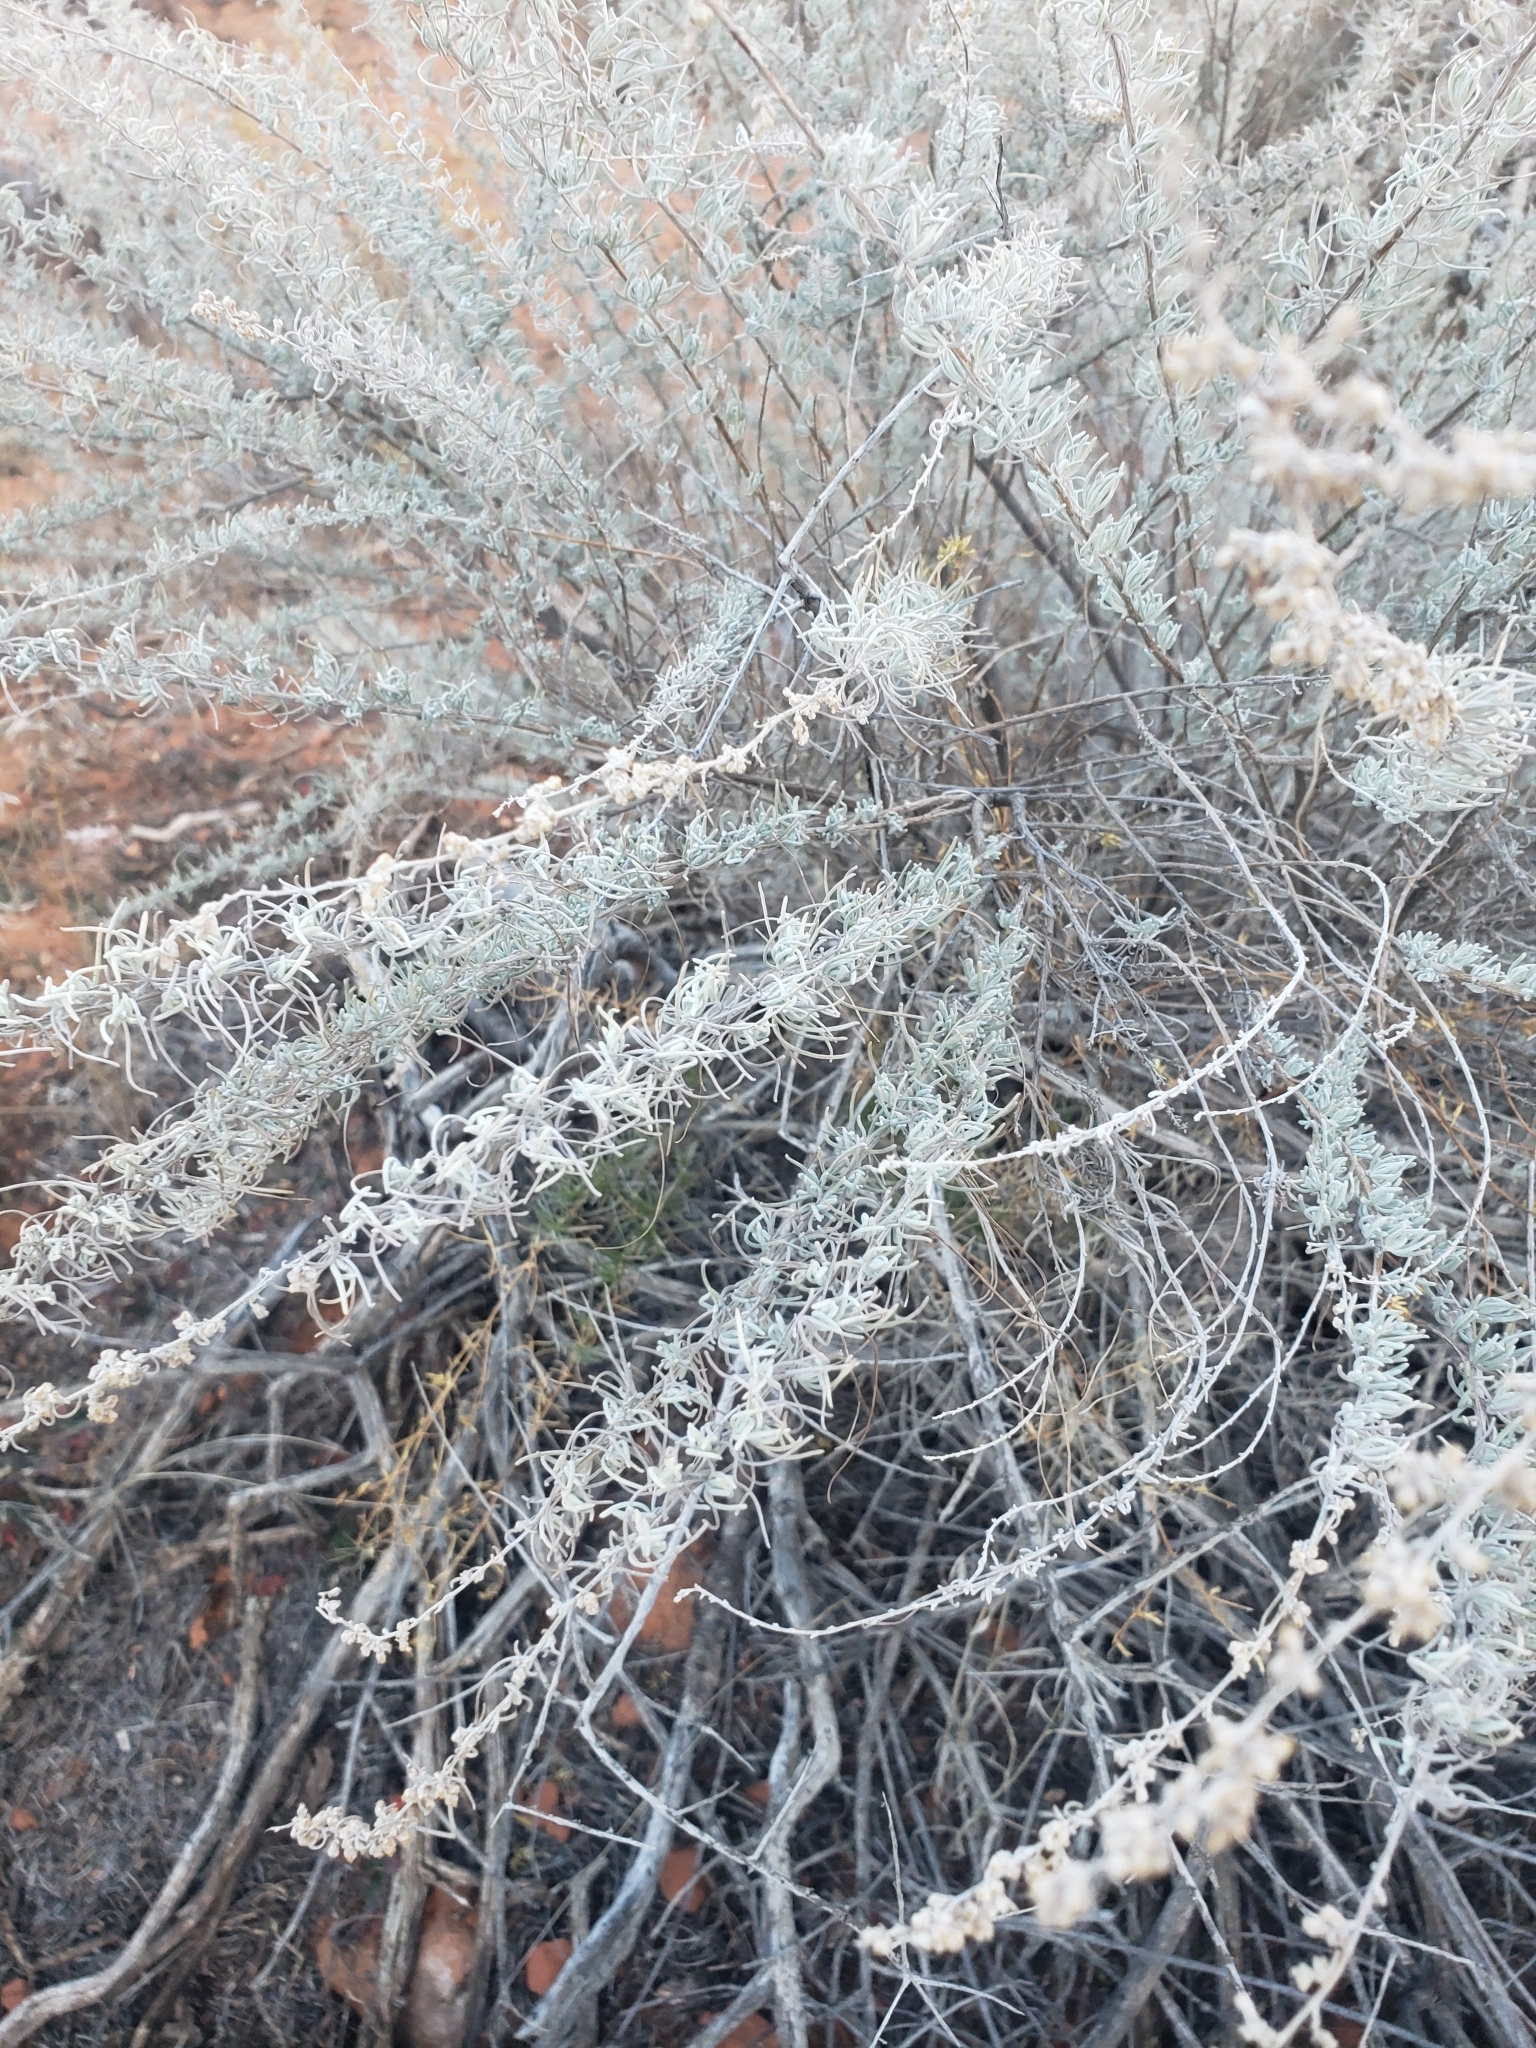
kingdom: Plantae
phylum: Tracheophyta
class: Magnoliopsida
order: Asterales
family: Asteraceae
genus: Artemisia
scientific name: Artemisia filifolia
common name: Sand-sage
